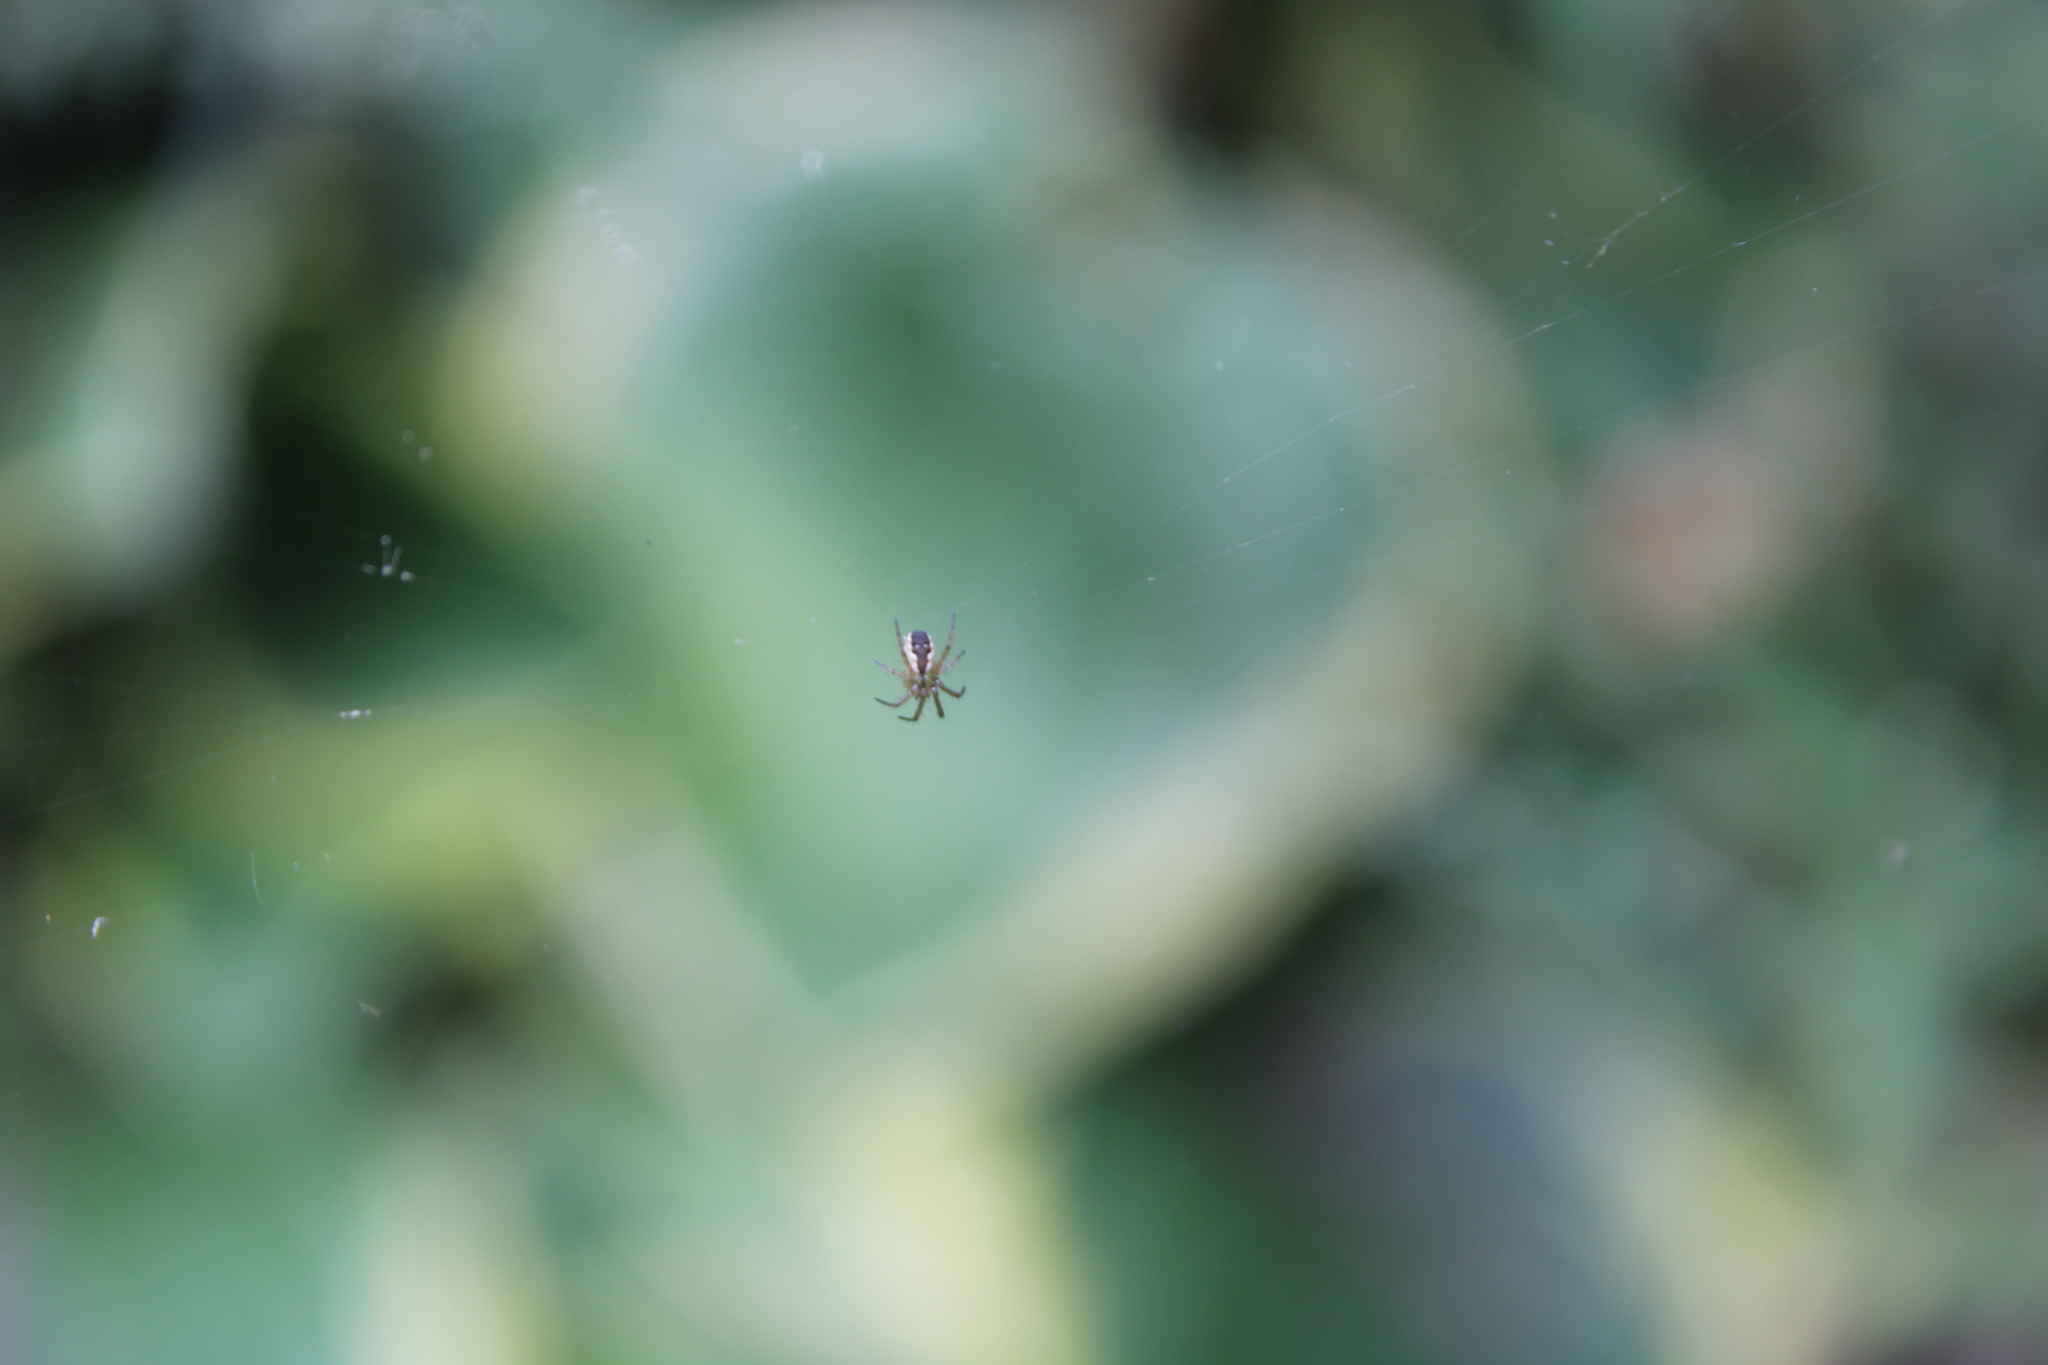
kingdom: Animalia
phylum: Arthropoda
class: Arachnida
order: Araneae
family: Araneidae
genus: Mangora
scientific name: Mangora placida
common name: Tuft-legged orbweaver
